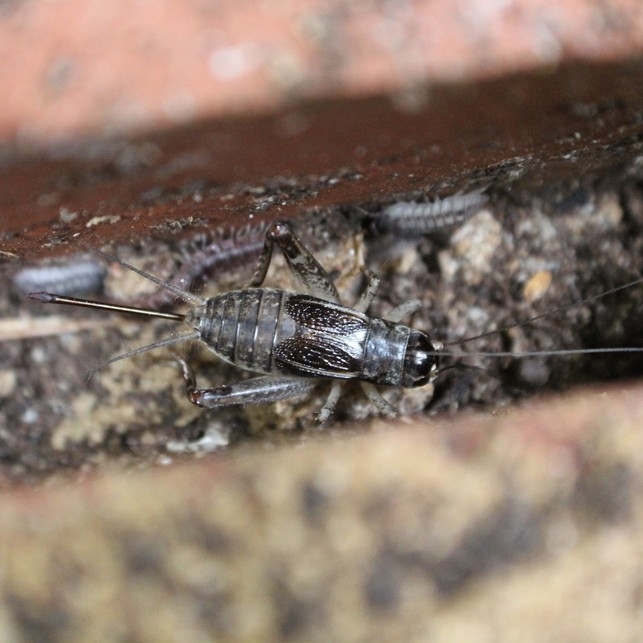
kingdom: Animalia
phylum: Arthropoda
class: Insecta
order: Orthoptera
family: Gryllidae
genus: Velarifictorus
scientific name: Velarifictorus micado
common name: Japanese burrowing cricket
